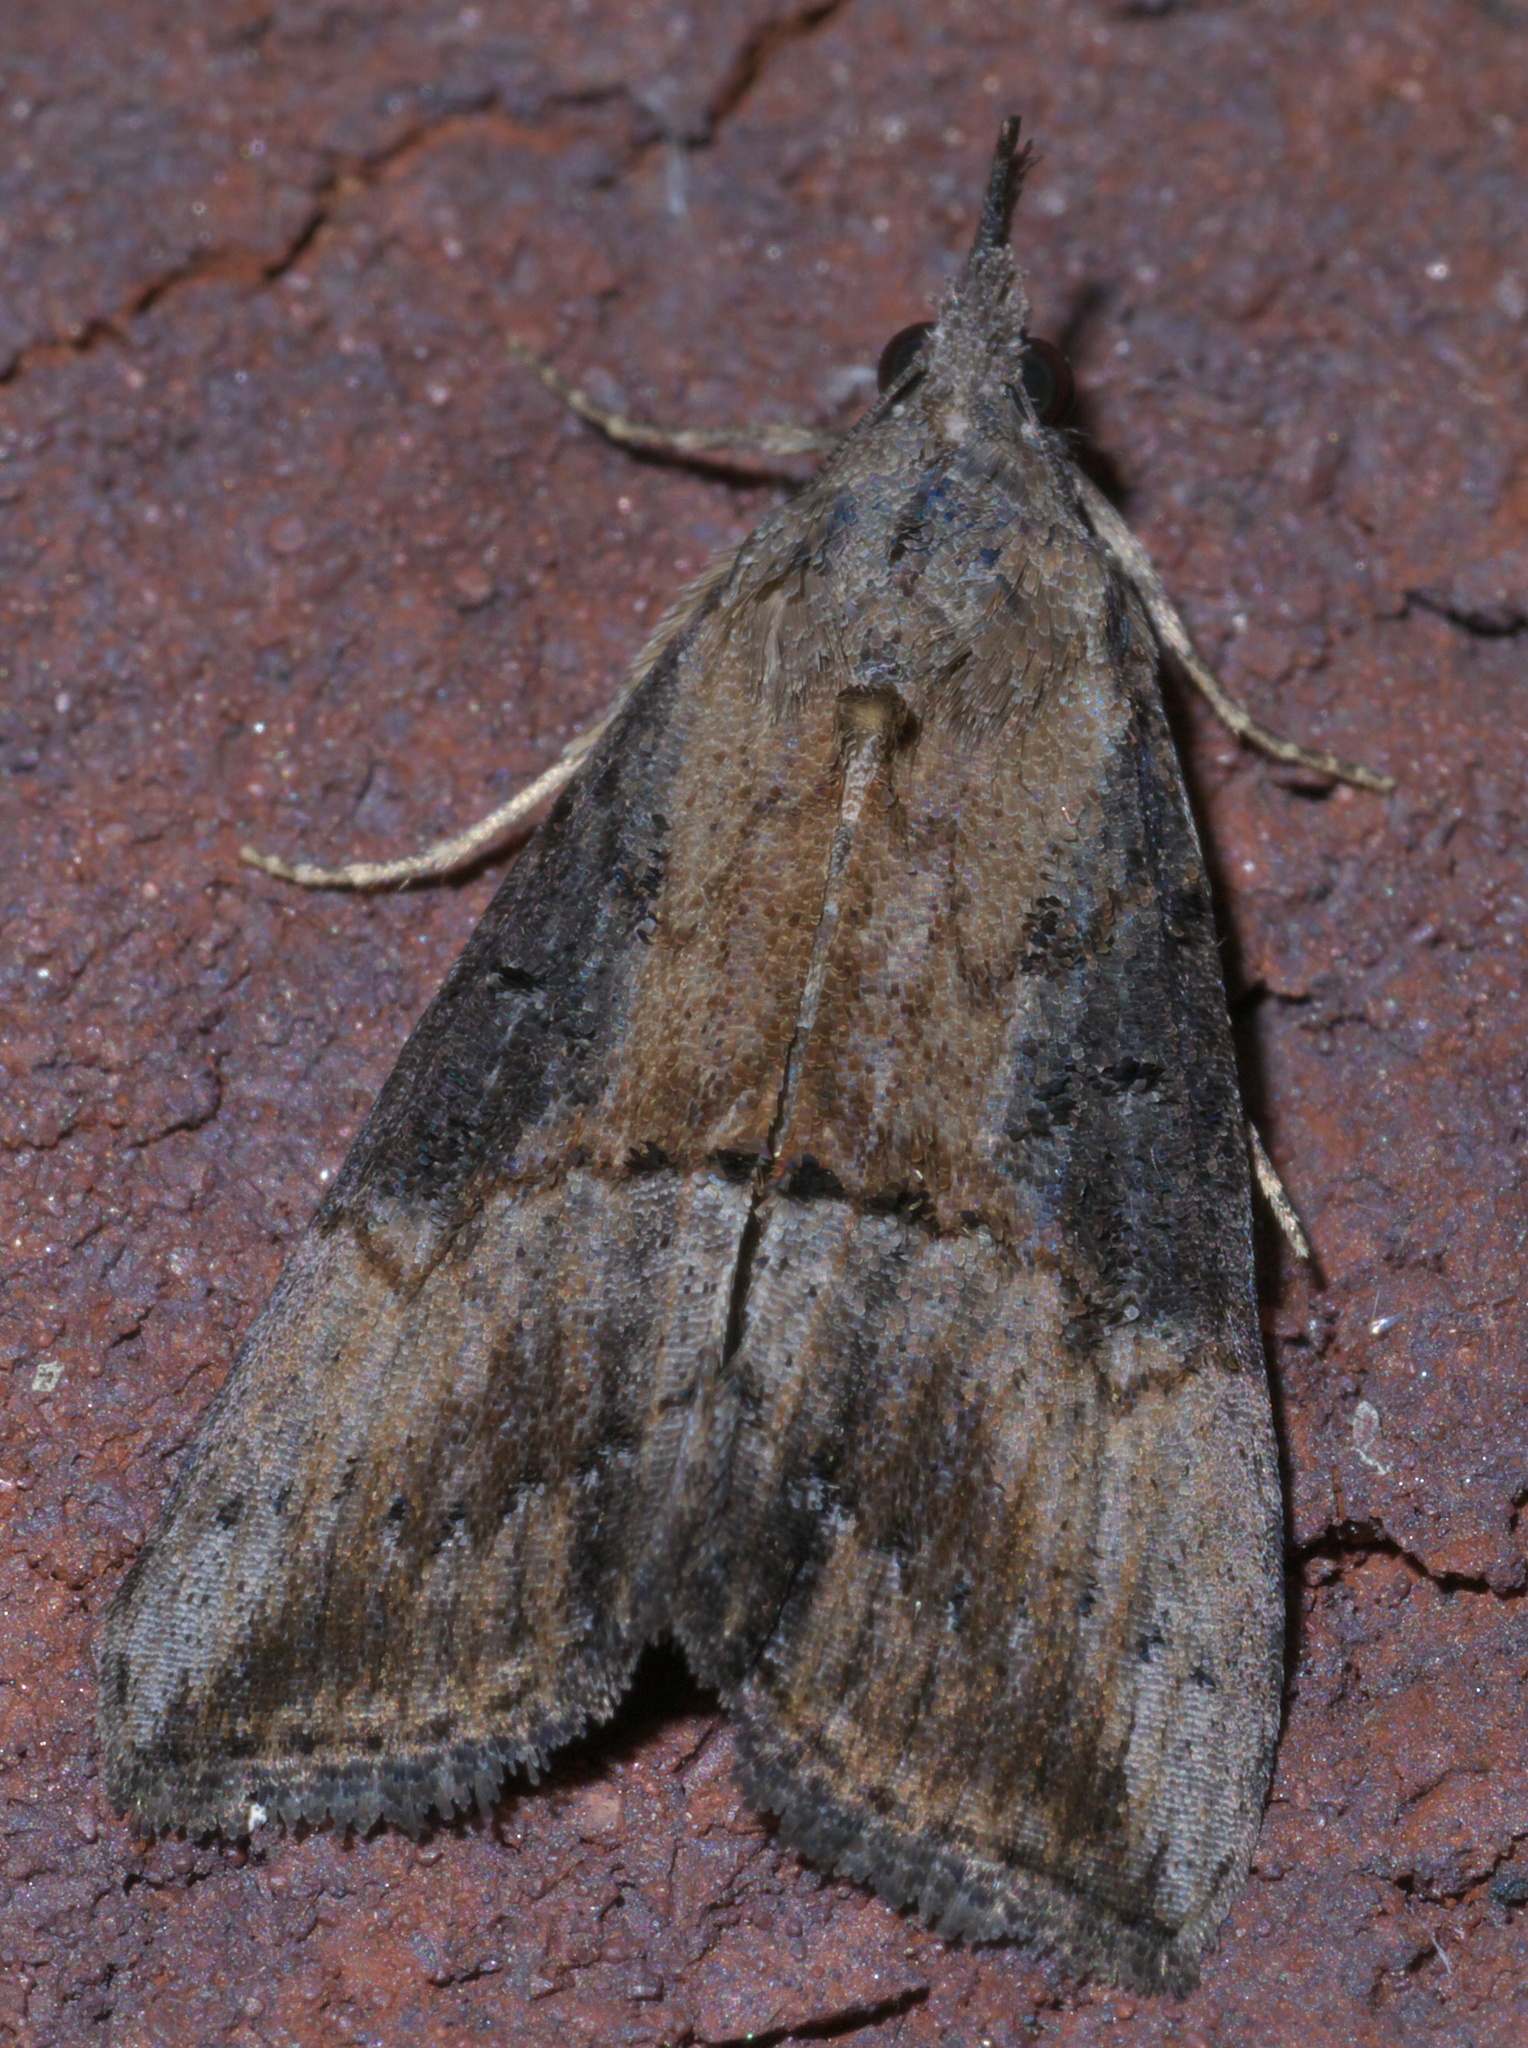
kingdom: Animalia
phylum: Arthropoda
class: Insecta
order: Lepidoptera
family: Erebidae
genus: Hypena
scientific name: Hypena scabra
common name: Green cloverworm
